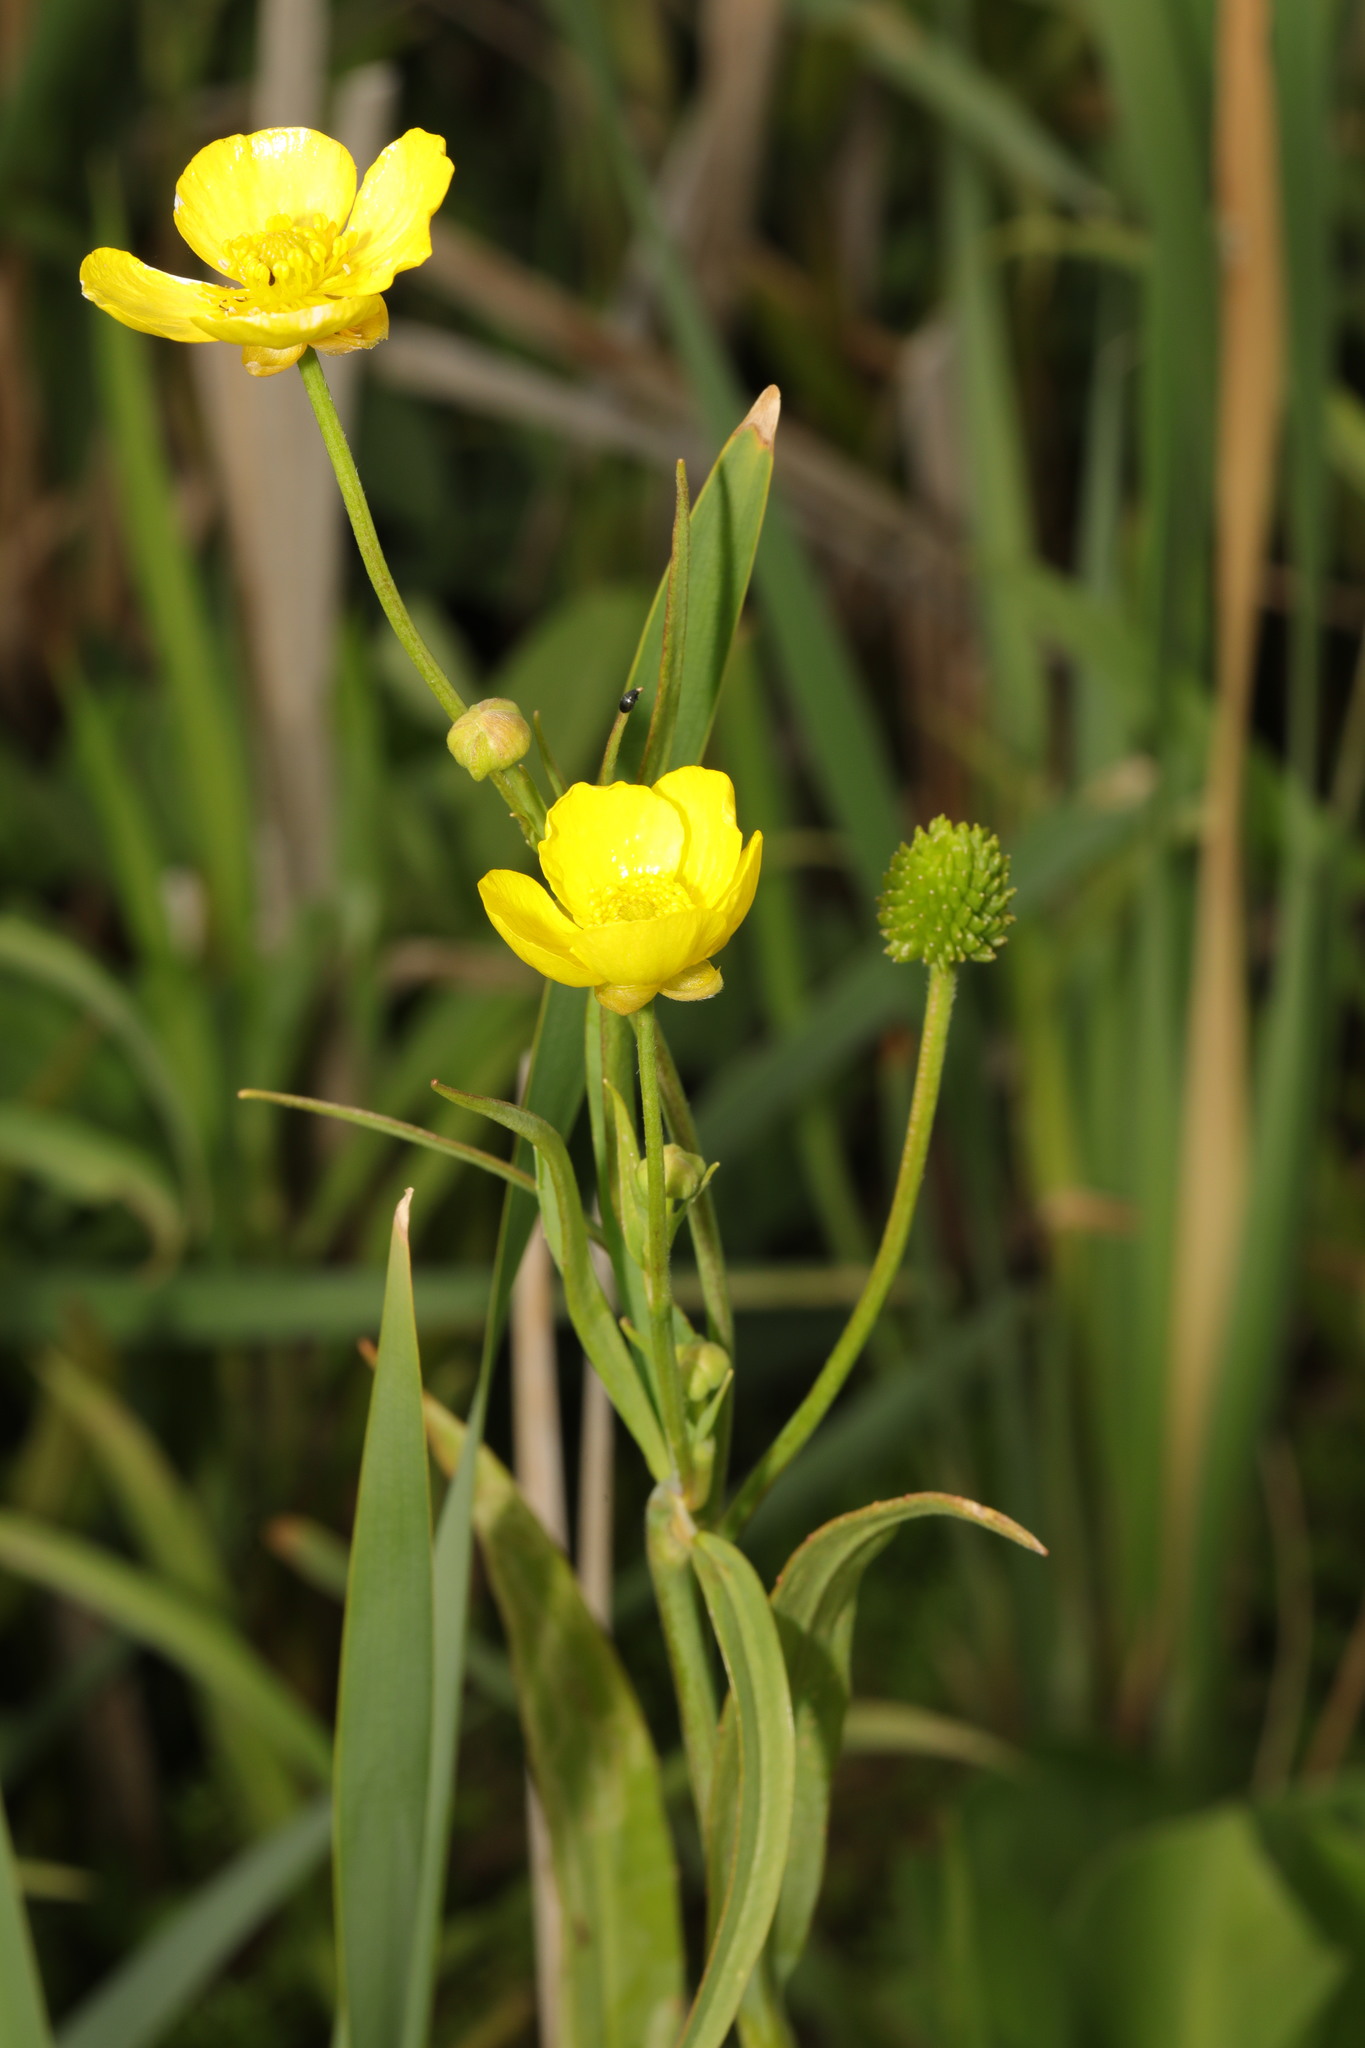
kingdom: Plantae
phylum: Tracheophyta
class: Magnoliopsida
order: Ranunculales
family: Ranunculaceae
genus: Ranunculus
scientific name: Ranunculus lingua
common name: Greater spearwort
